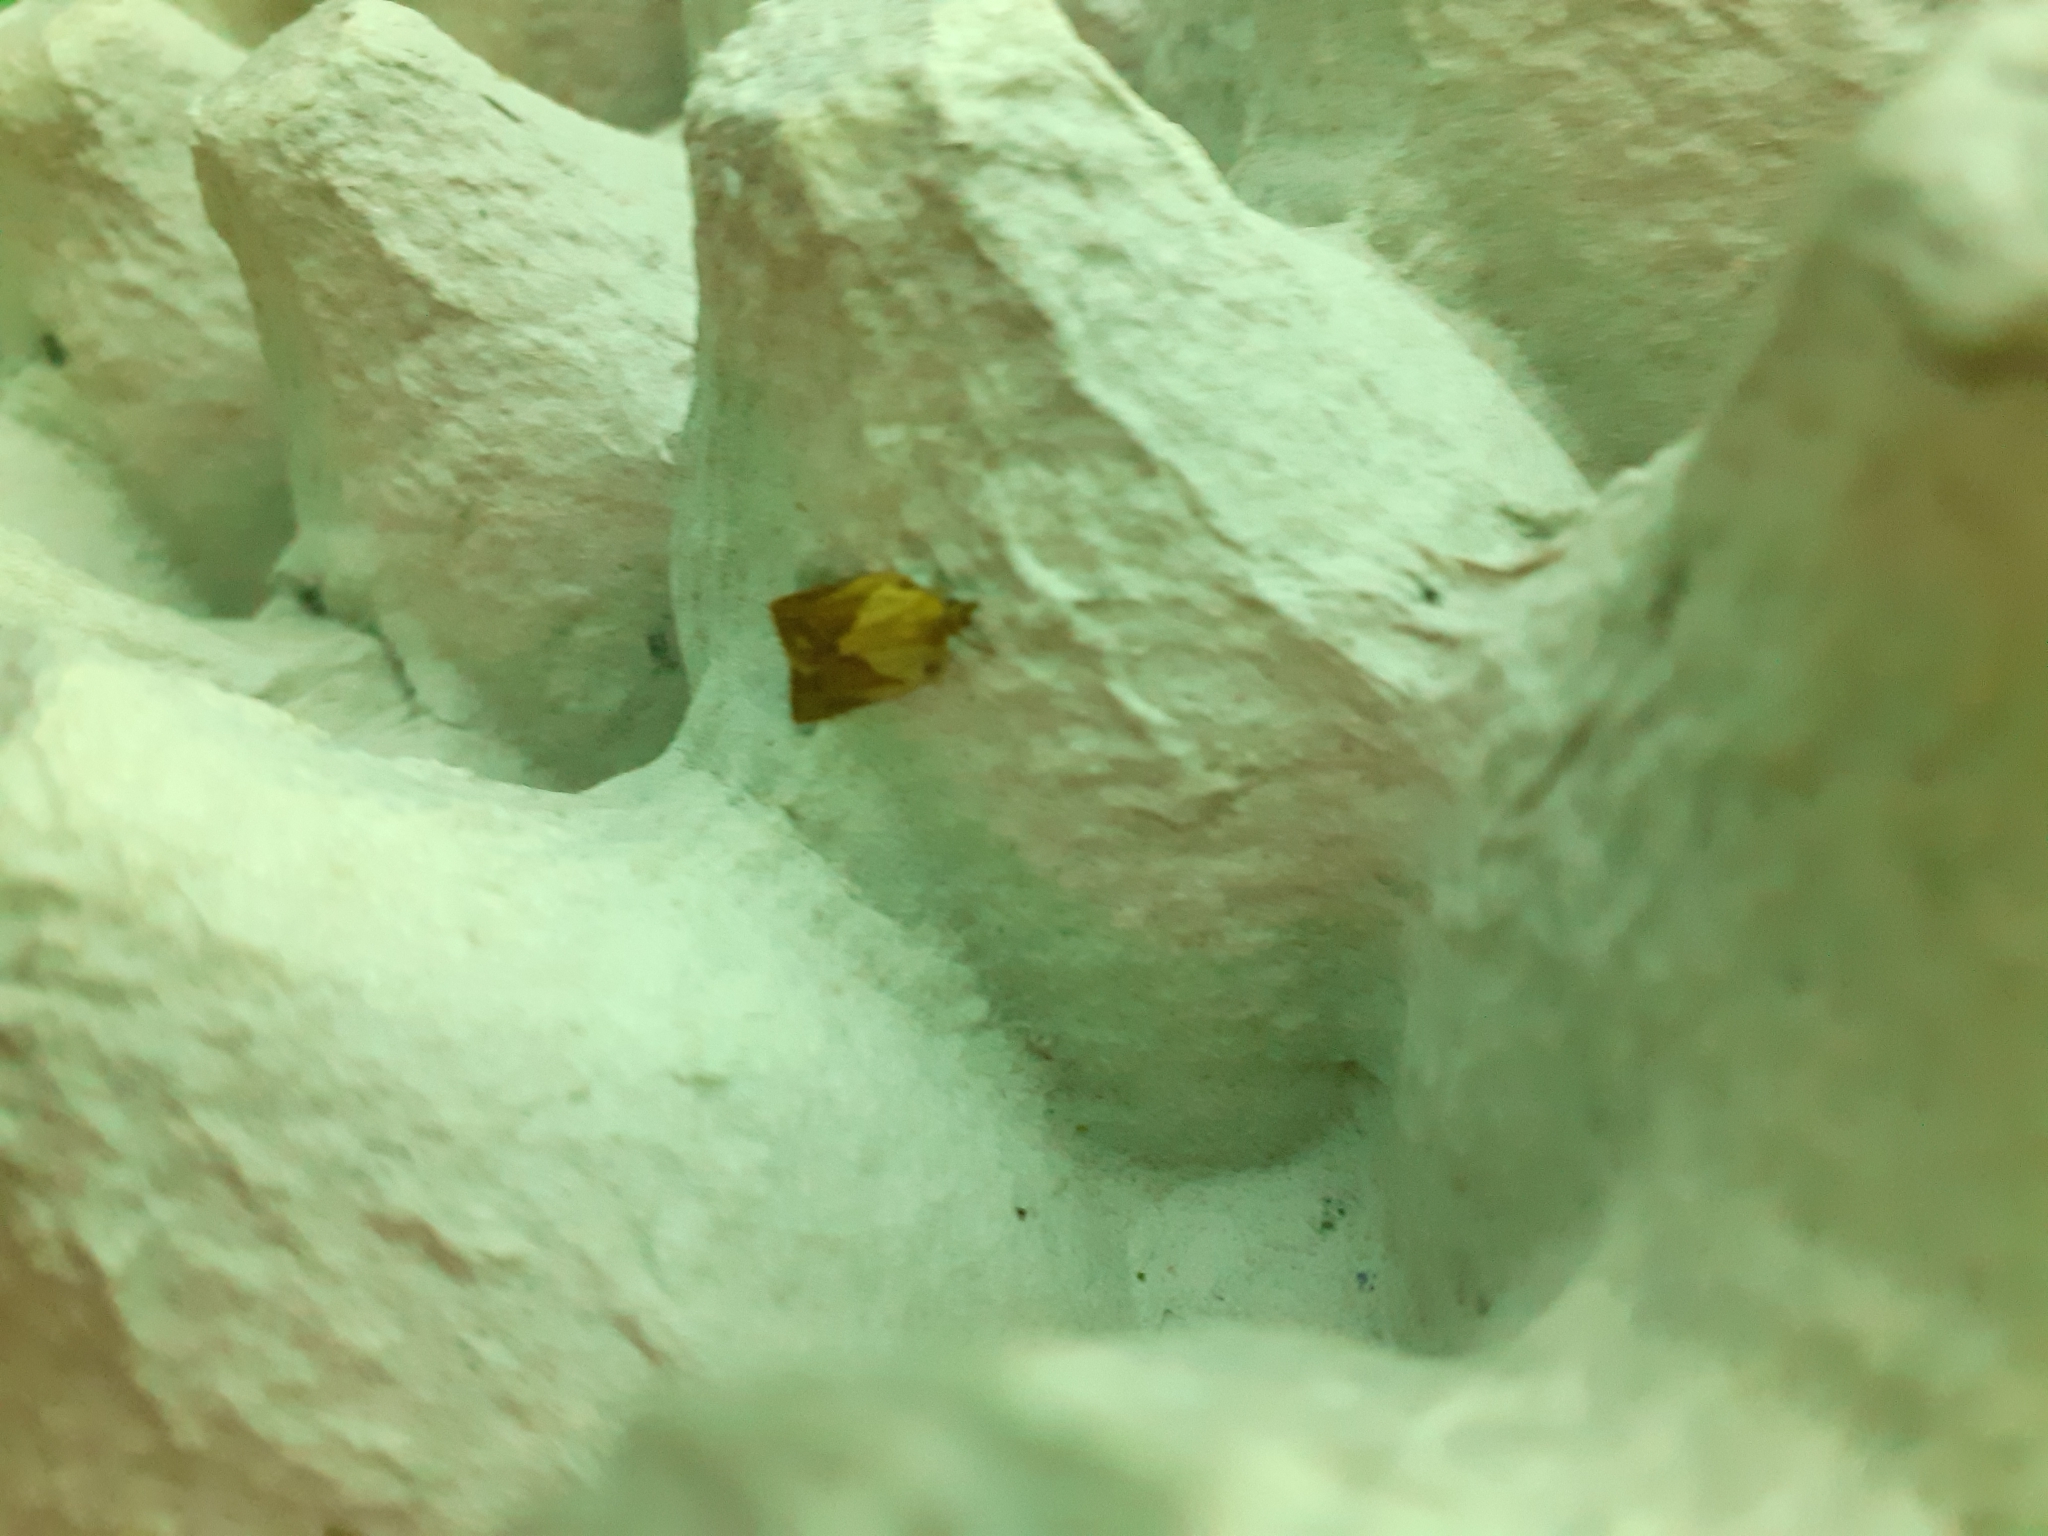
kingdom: Animalia
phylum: Arthropoda
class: Insecta
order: Lepidoptera
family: Tortricidae
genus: Epiphyas
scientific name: Epiphyas postvittana
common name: Light brown apple moth
